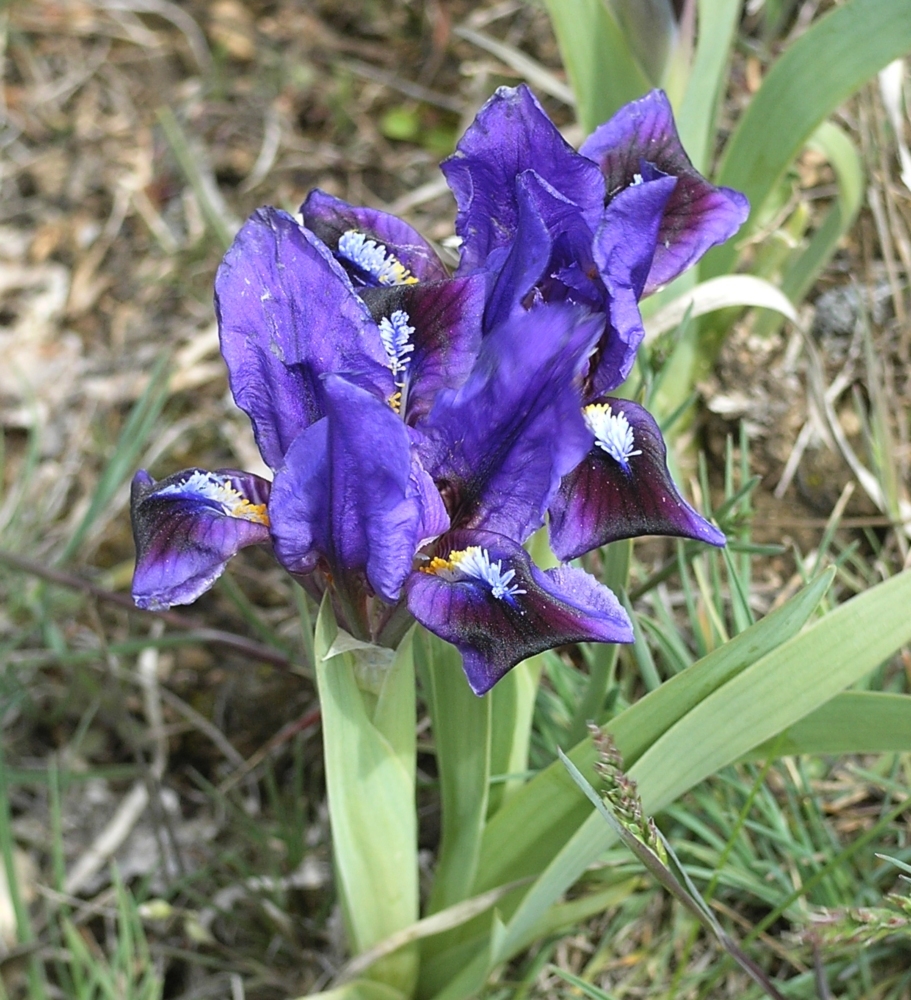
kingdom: Plantae
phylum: Tracheophyta
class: Liliopsida
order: Asparagales
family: Iridaceae
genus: Iris
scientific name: Iris pumila
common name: Dwarf iris
